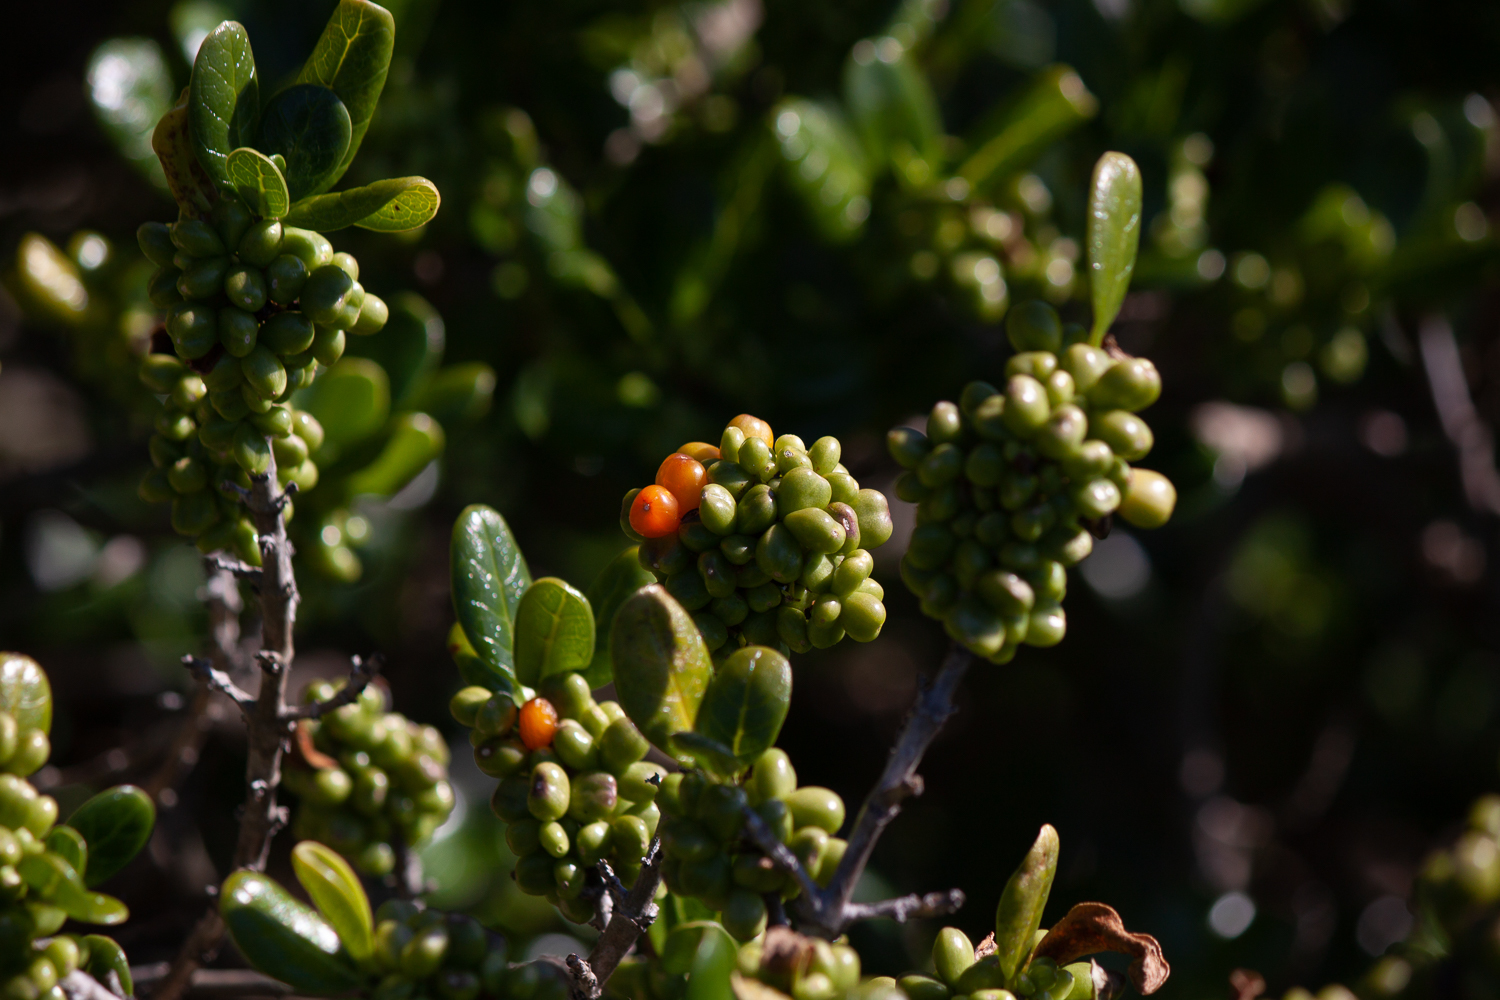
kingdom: Plantae
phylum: Tracheophyta
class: Magnoliopsida
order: Gentianales
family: Rubiaceae
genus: Coprosma
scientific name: Coprosma repens
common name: Tree bedstraw
